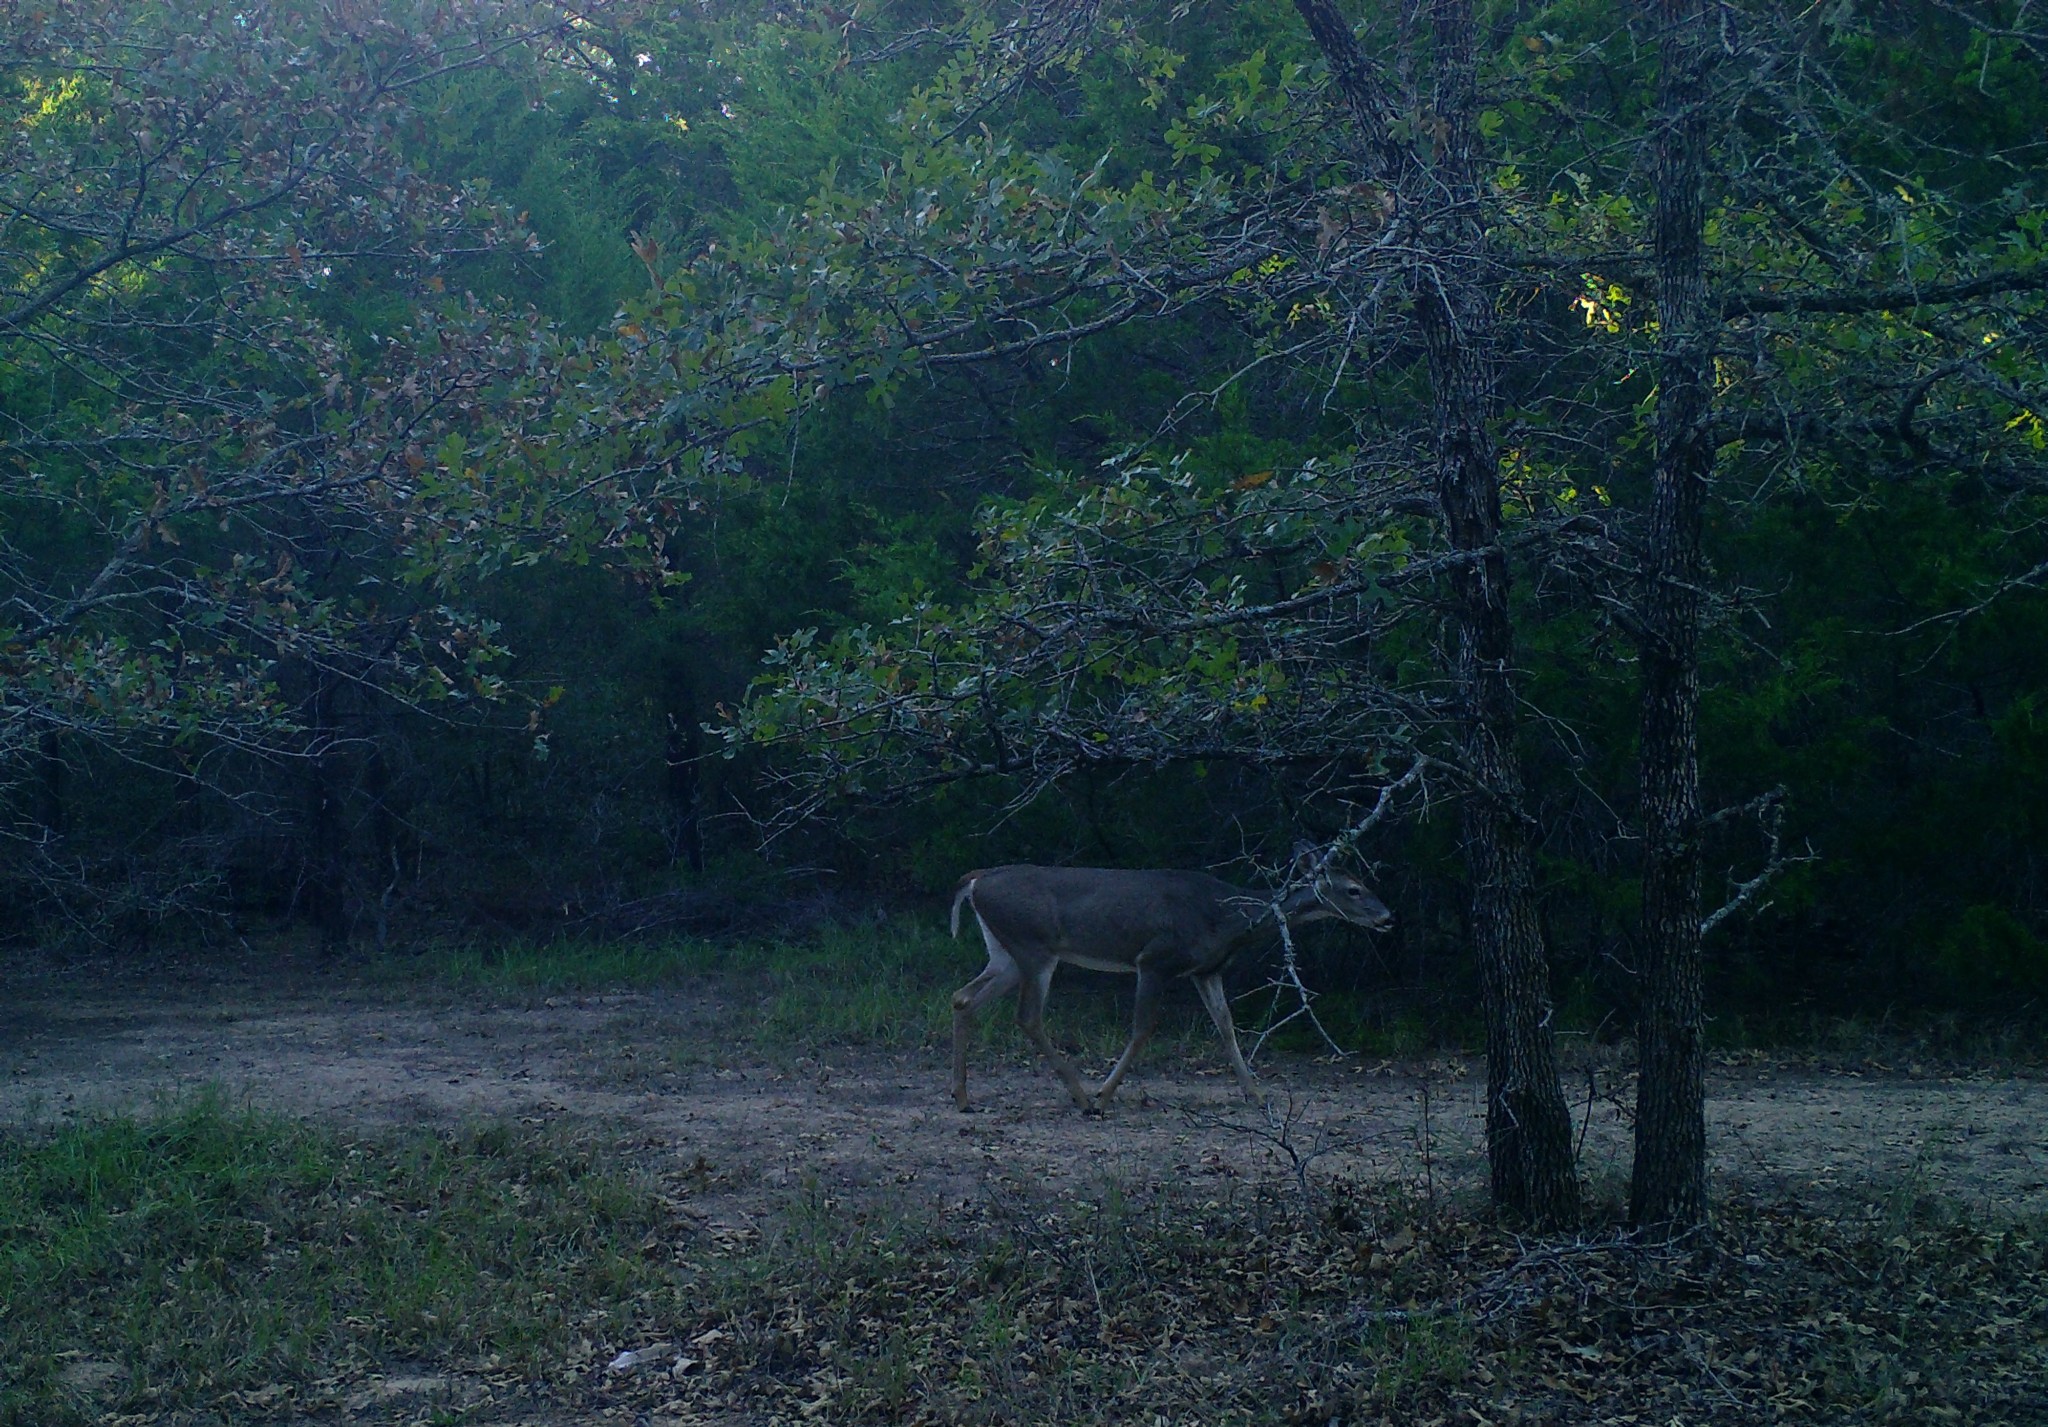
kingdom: Animalia
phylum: Chordata
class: Mammalia
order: Artiodactyla
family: Cervidae
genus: Odocoileus
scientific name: Odocoileus virginianus
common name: White-tailed deer
